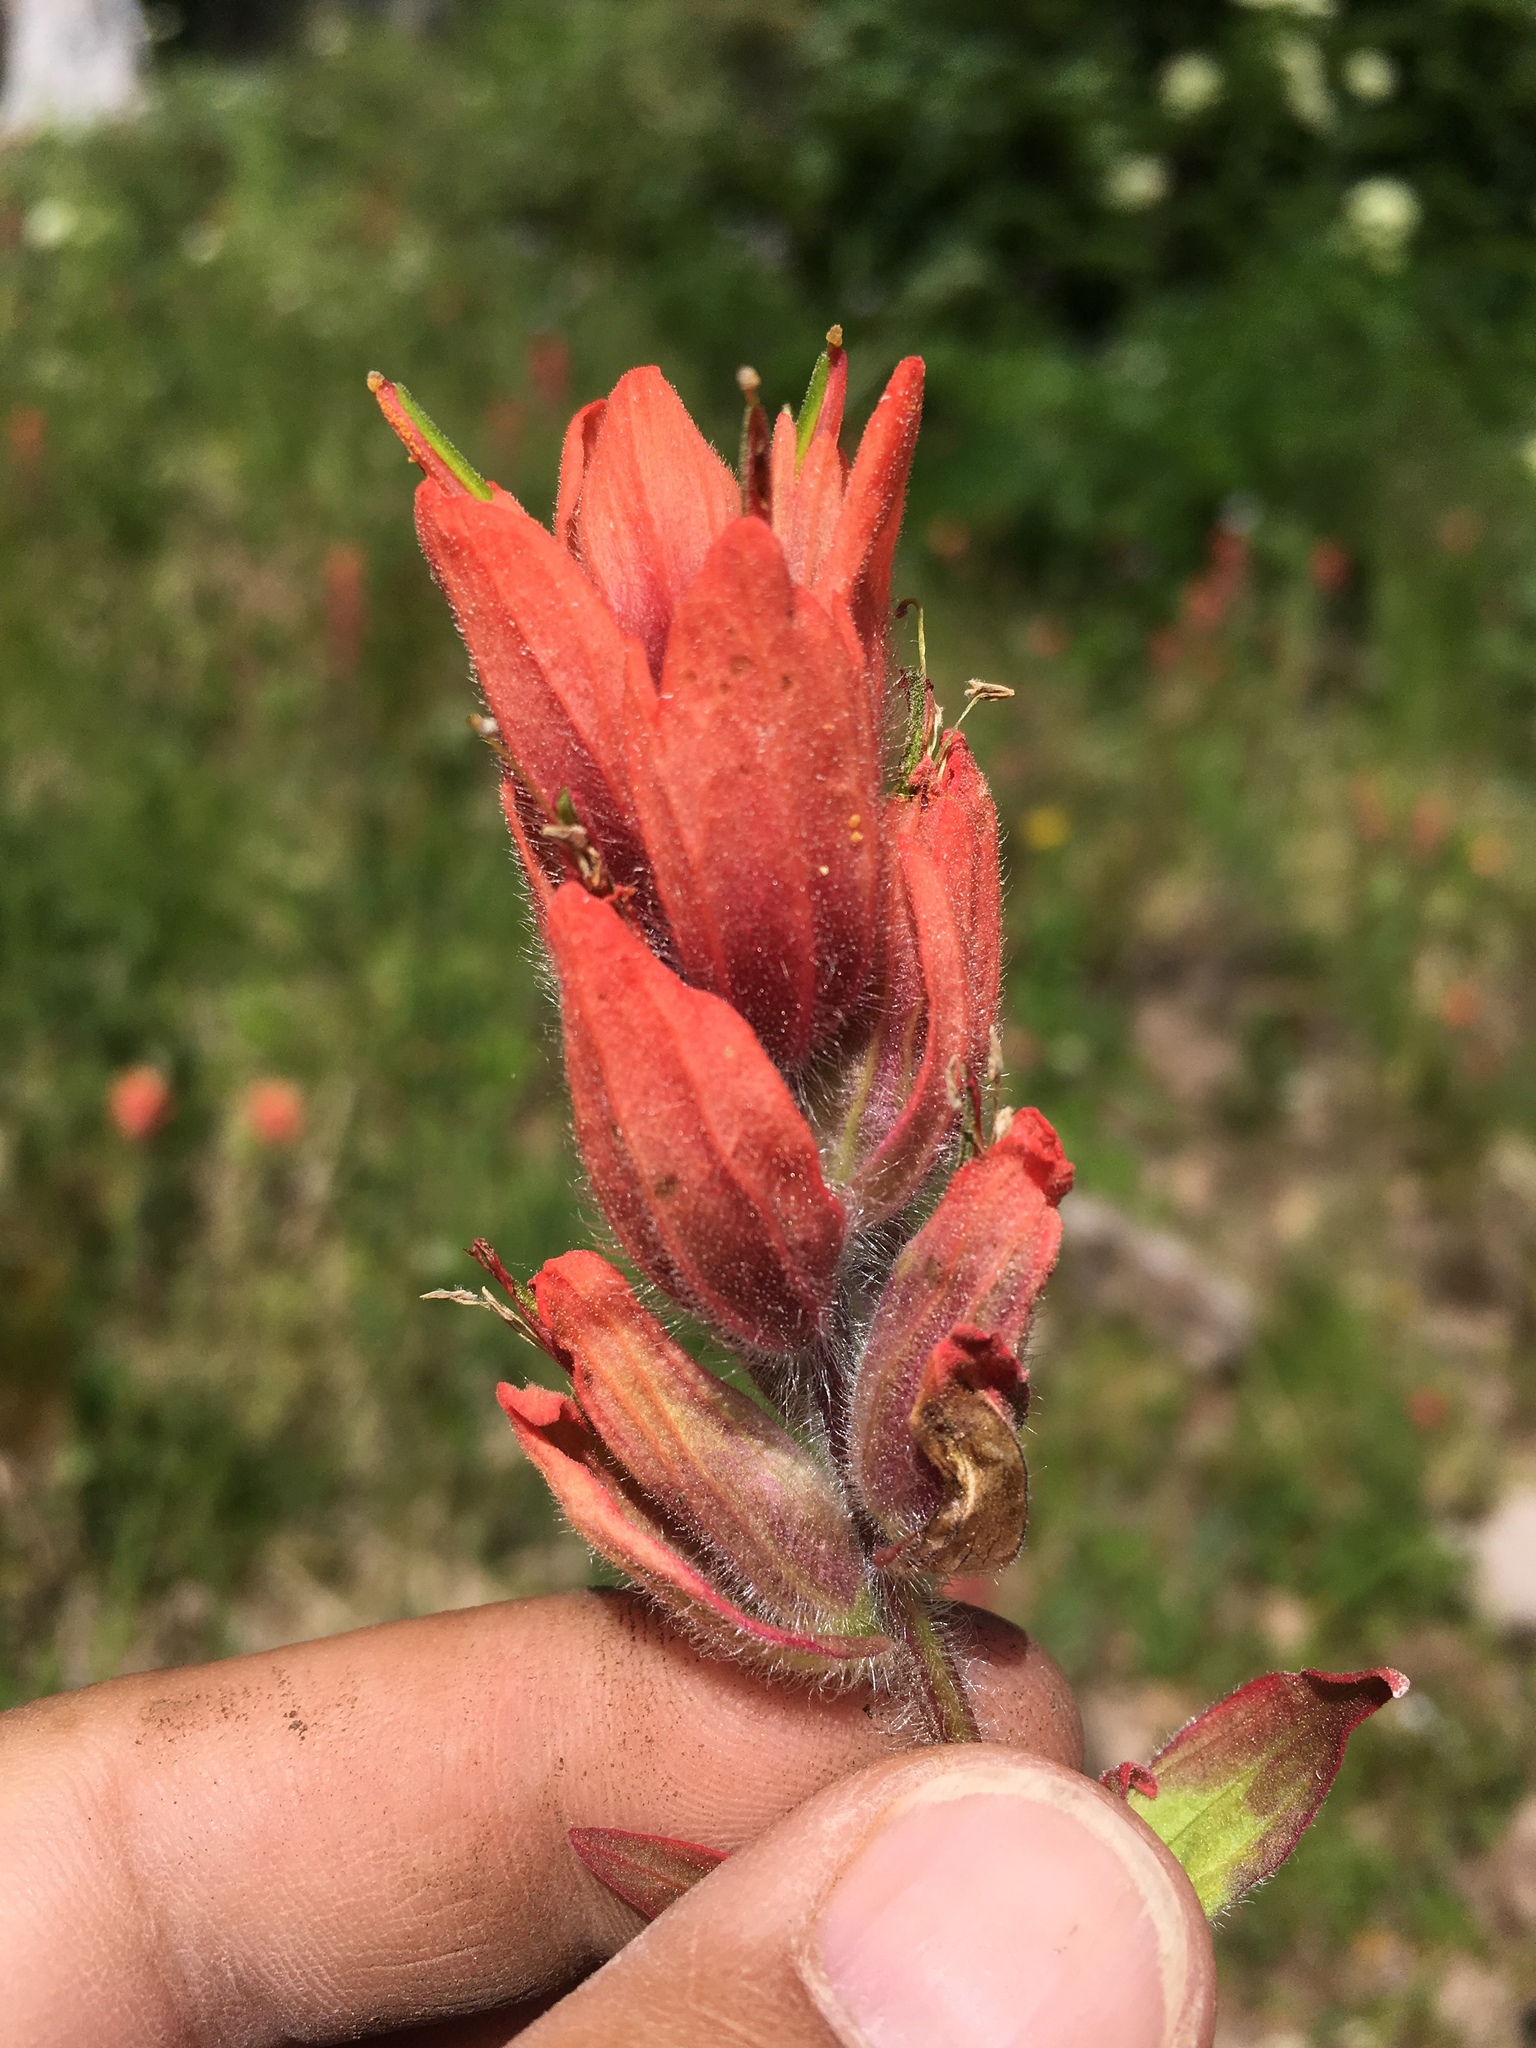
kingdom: Plantae
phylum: Tracheophyta
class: Magnoliopsida
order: Lamiales
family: Orobanchaceae
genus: Castilleja
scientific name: Castilleja rhexifolia
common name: Rocky mountain paintbrush
